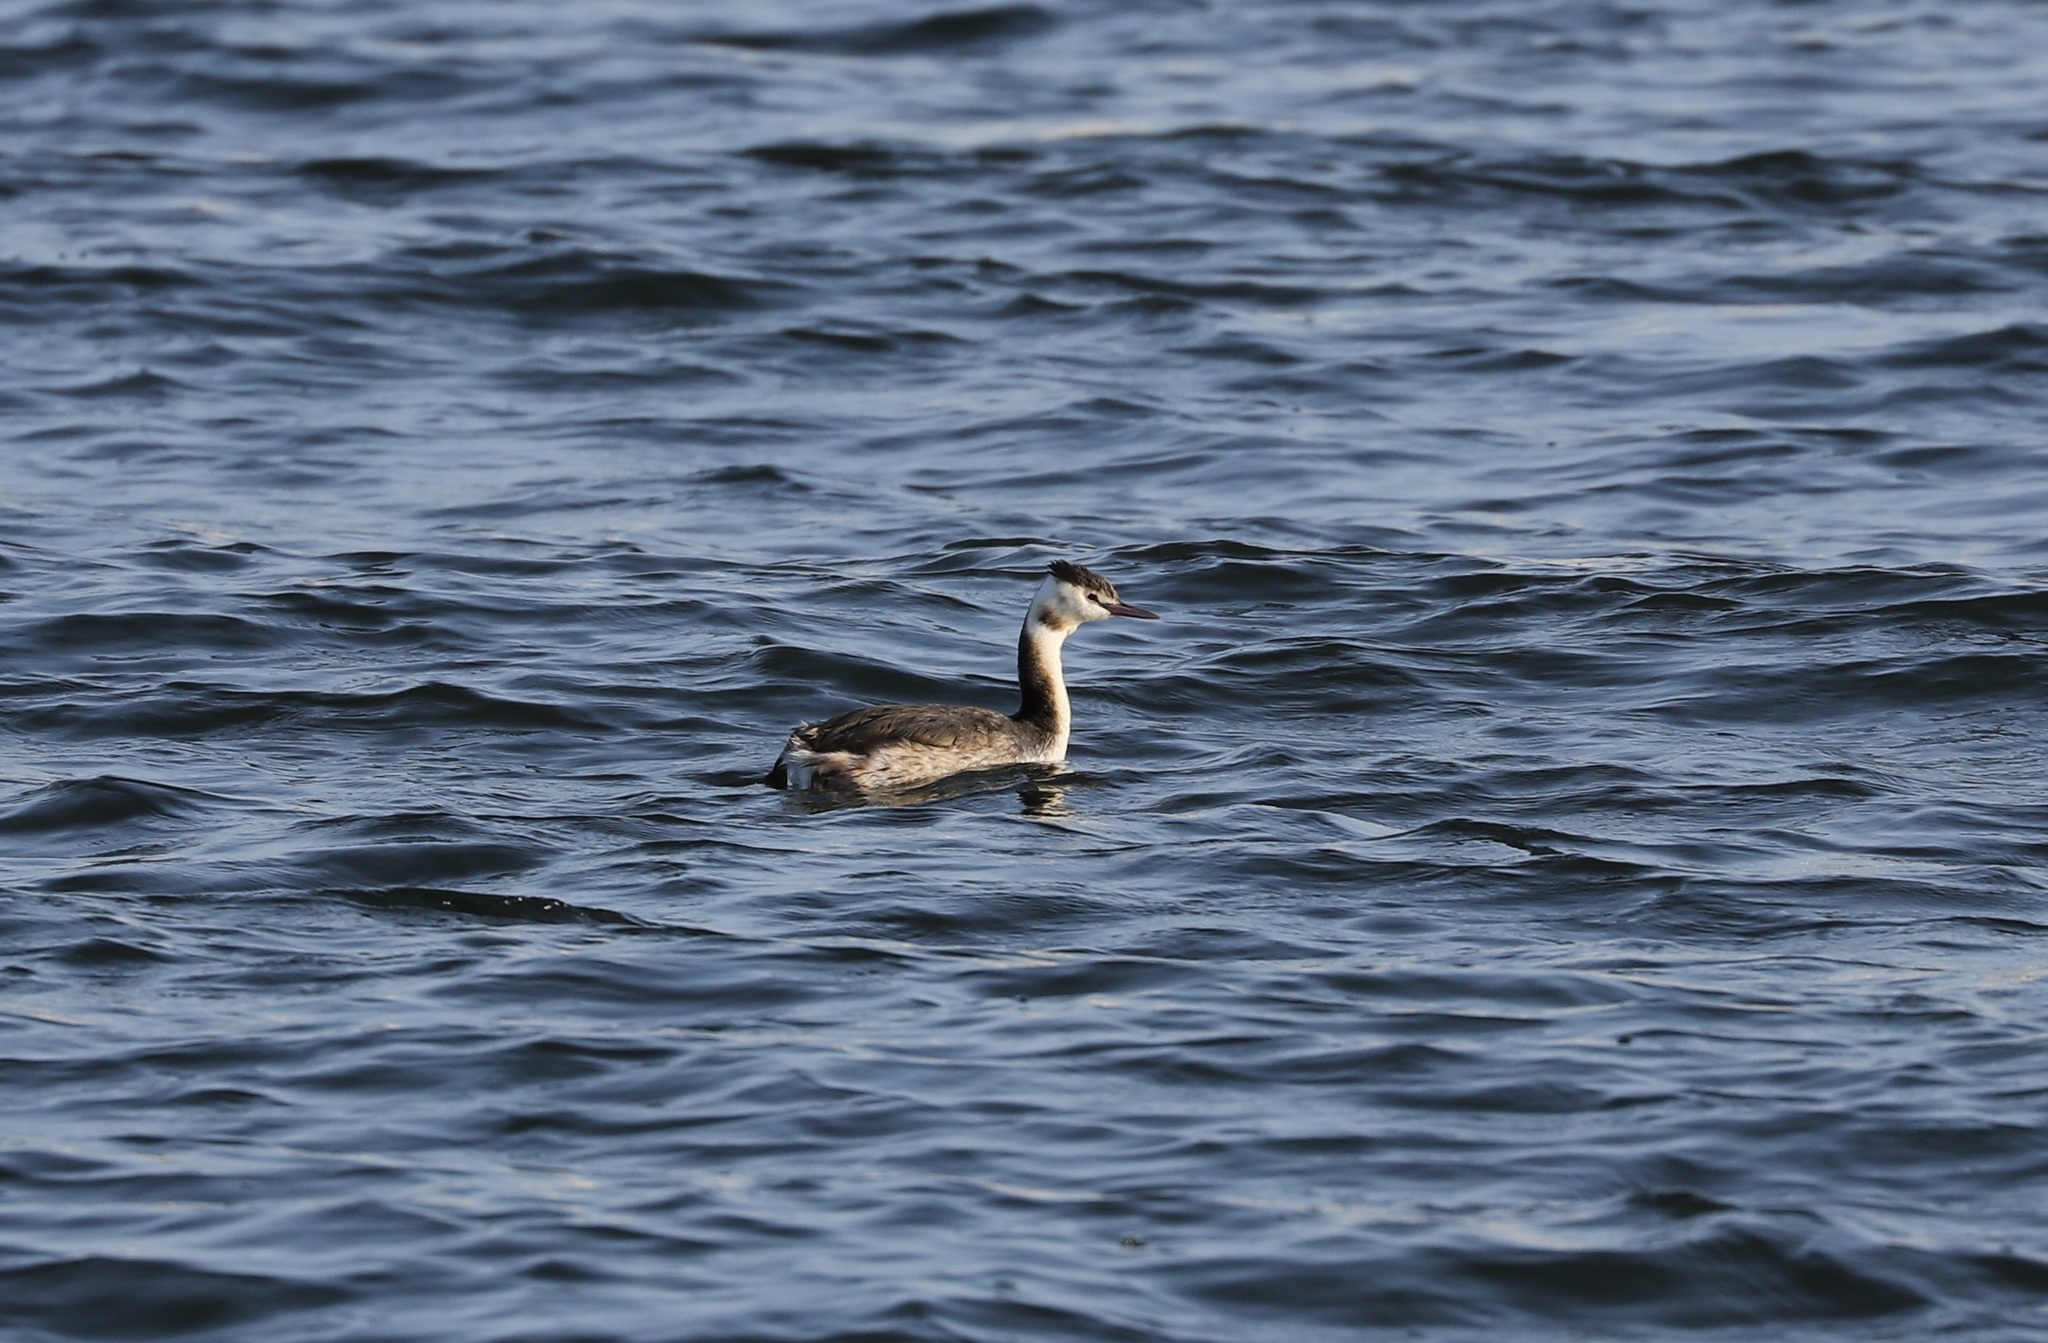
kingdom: Animalia
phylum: Chordata
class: Aves
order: Podicipediformes
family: Podicipedidae
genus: Podiceps
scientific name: Podiceps cristatus
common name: Great crested grebe
